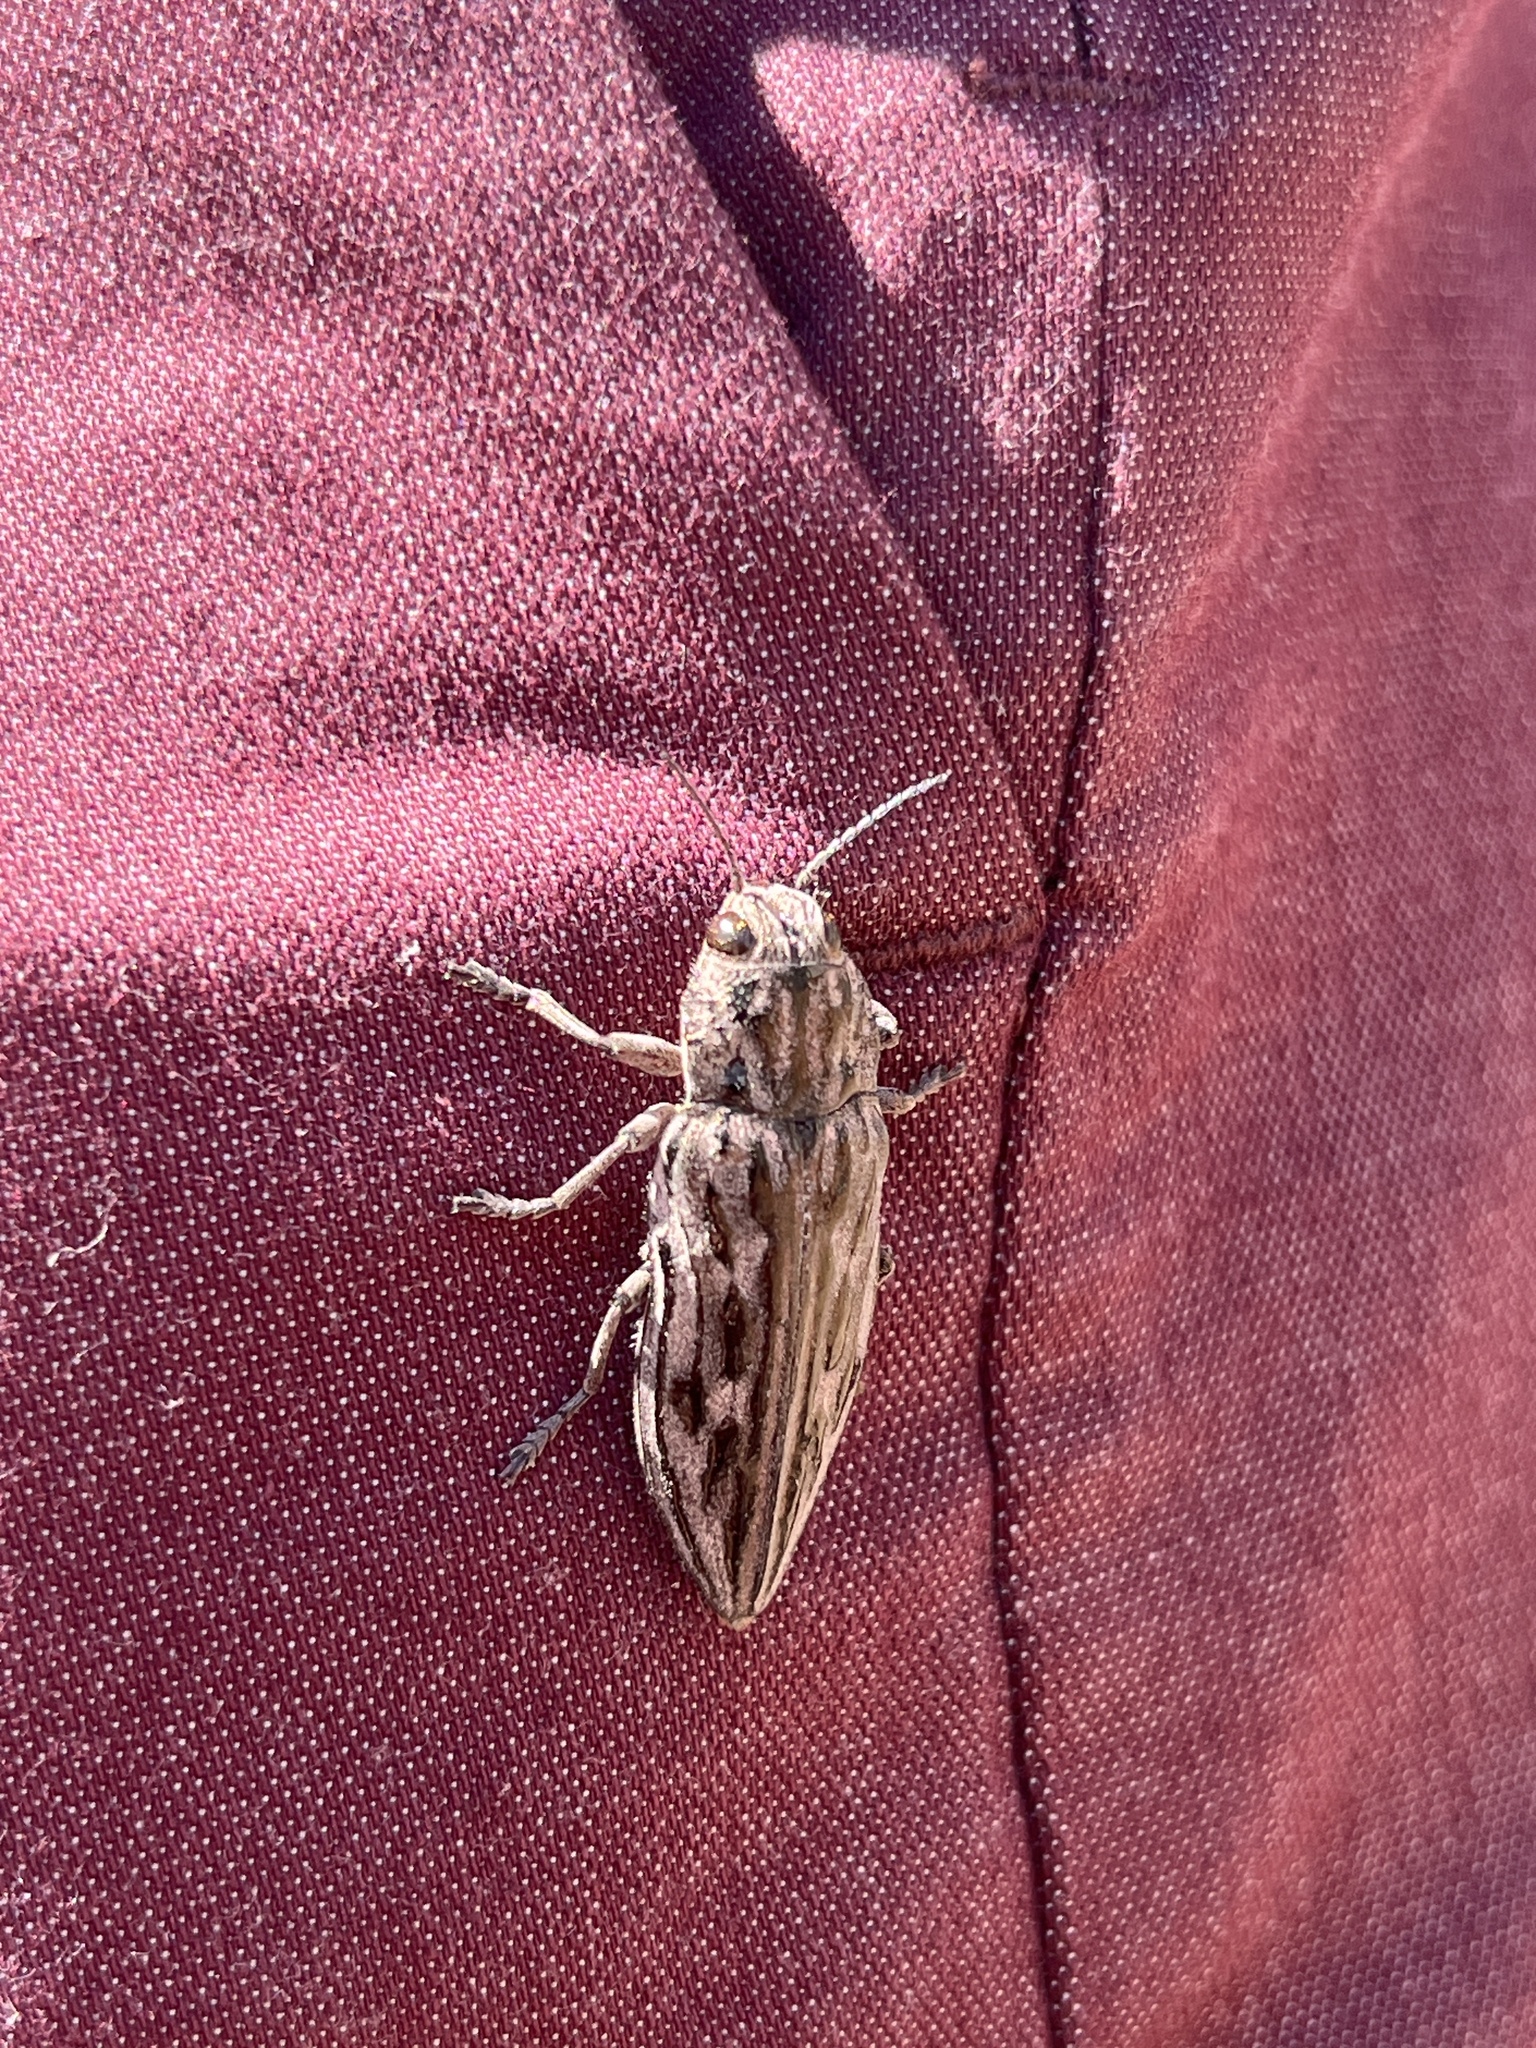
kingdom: Animalia
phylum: Arthropoda
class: Insecta
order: Coleoptera
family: Buprestidae
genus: Chalcophora
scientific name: Chalcophora angulicollis
